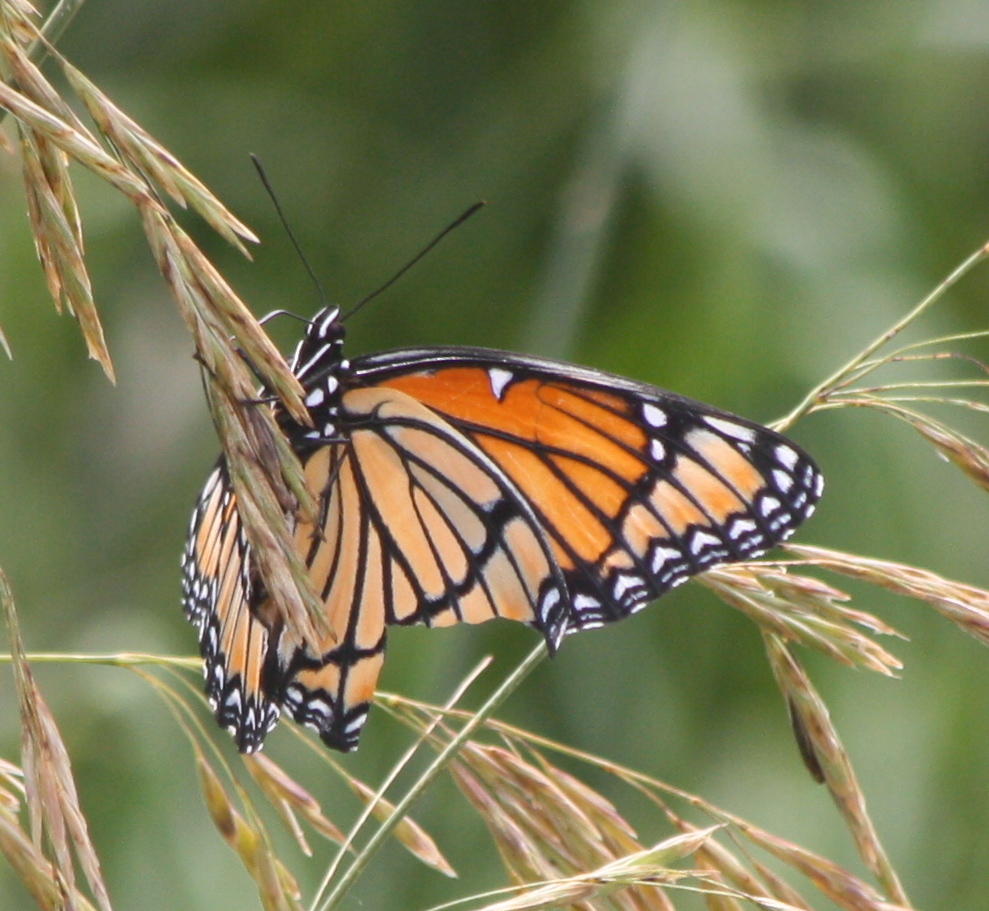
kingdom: Animalia
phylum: Arthropoda
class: Insecta
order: Lepidoptera
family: Nymphalidae
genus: Limenitis
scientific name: Limenitis archippus
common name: Viceroy
